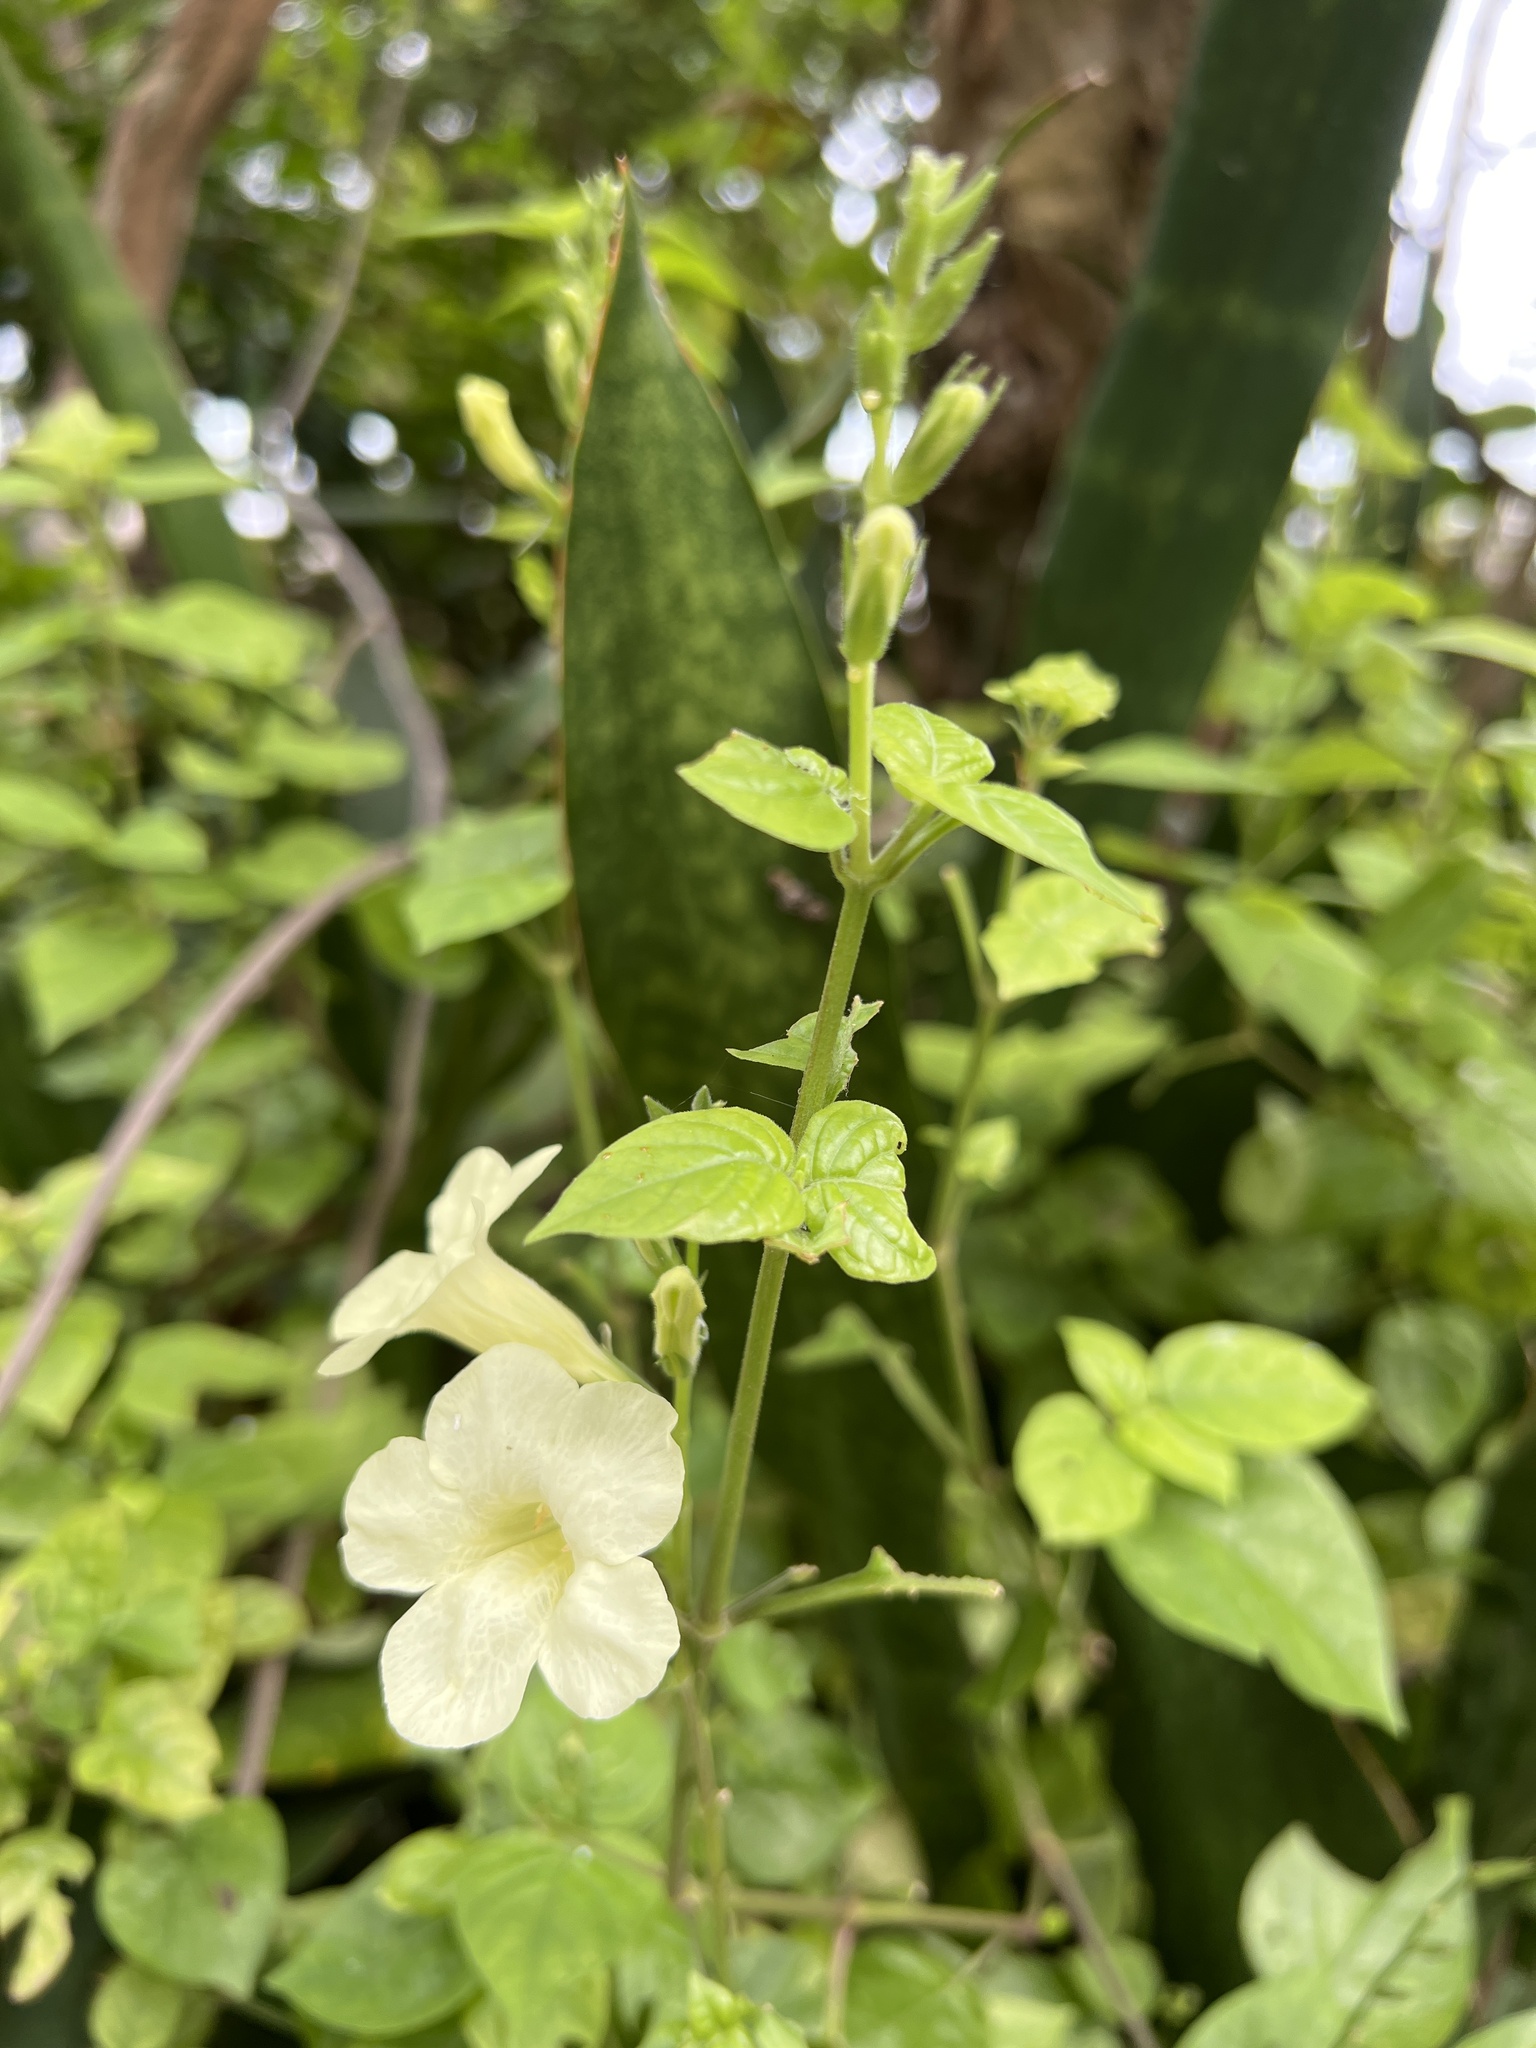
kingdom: Plantae
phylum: Tracheophyta
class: Magnoliopsida
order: Lamiales
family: Acanthaceae
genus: Asystasia
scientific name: Asystasia gangetica
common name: Chinese violet
